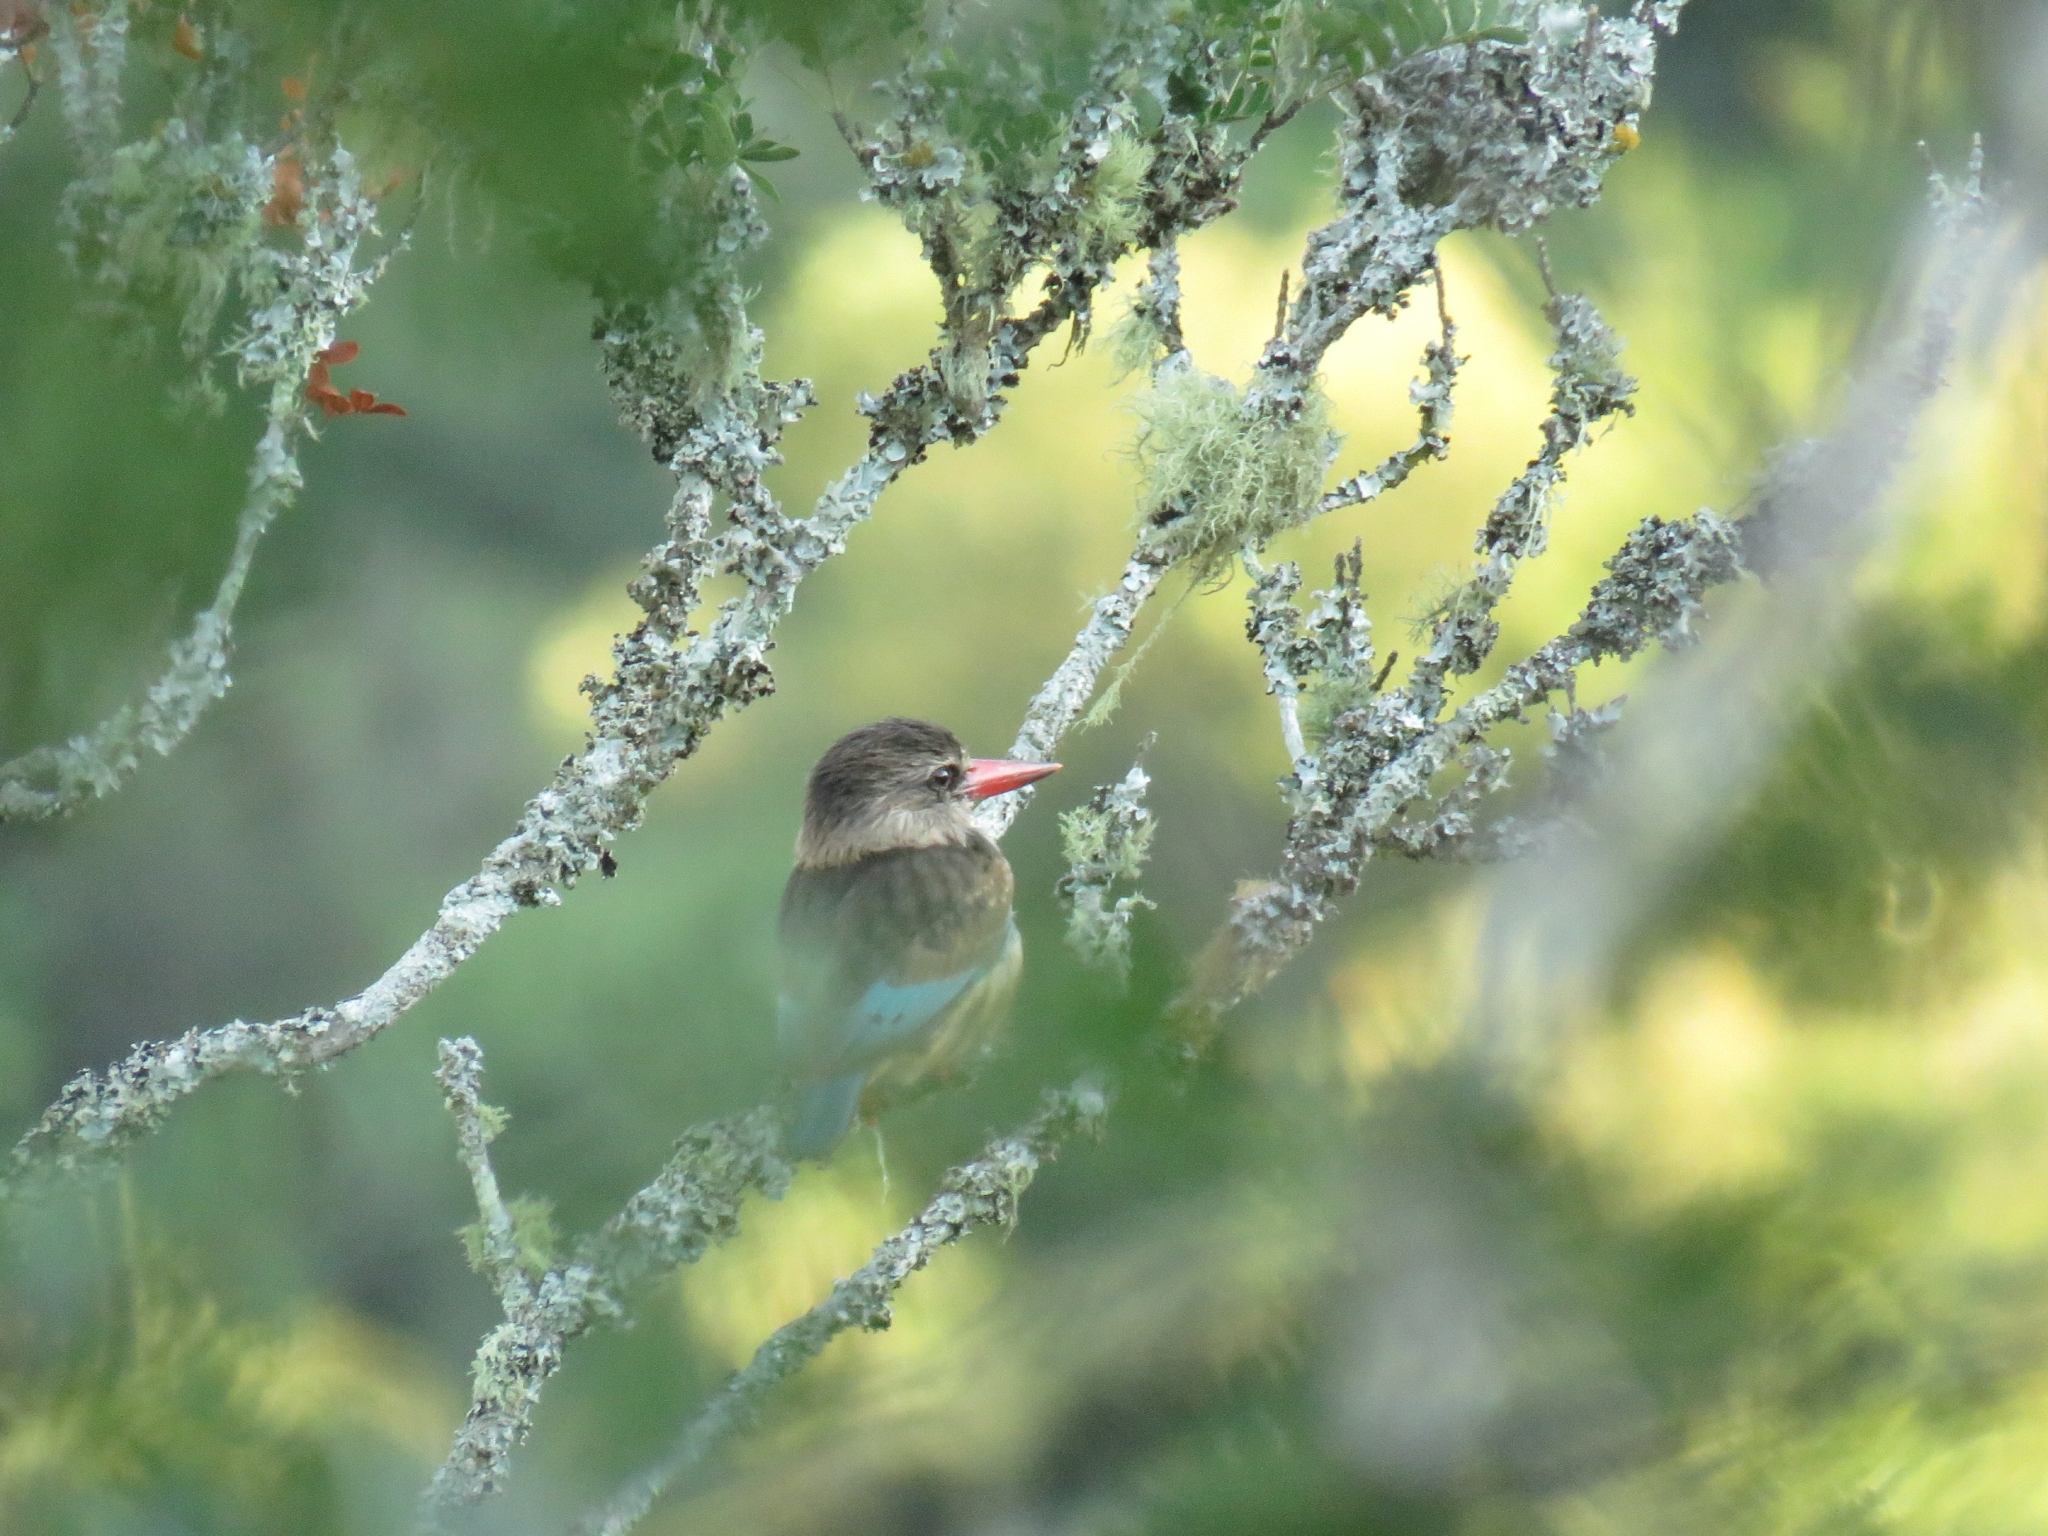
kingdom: Animalia
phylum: Chordata
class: Aves
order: Coraciiformes
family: Alcedinidae
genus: Halcyon
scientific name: Halcyon albiventris
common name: Brown-hooded kingfisher
